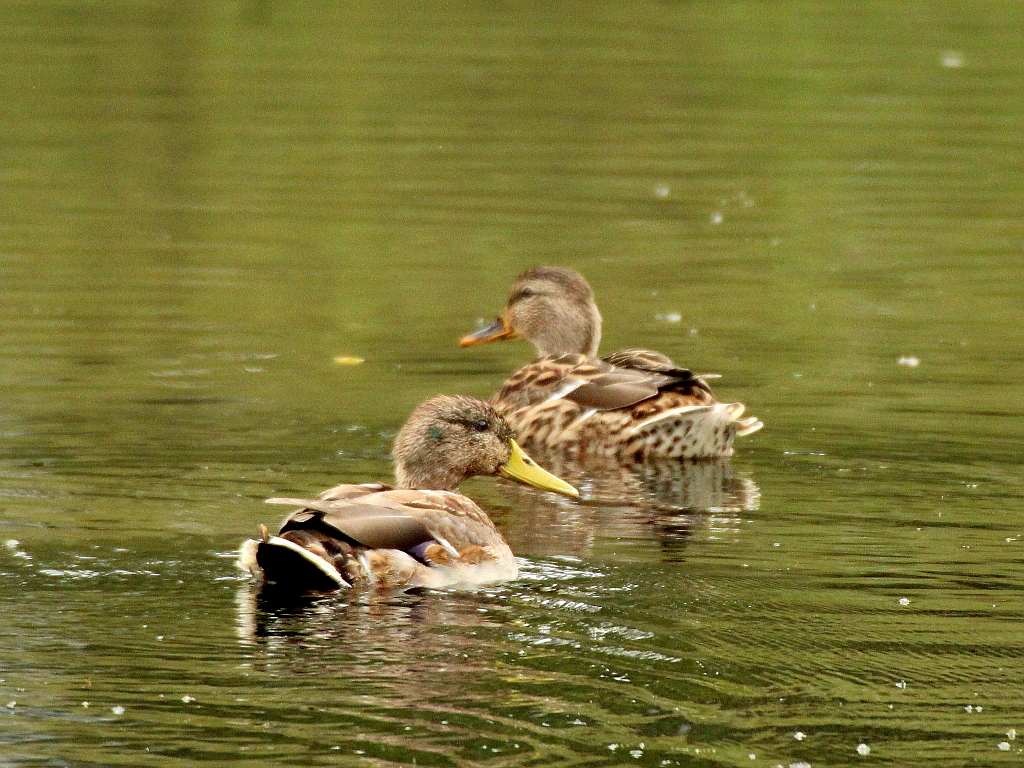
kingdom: Animalia
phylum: Chordata
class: Aves
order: Anseriformes
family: Anatidae
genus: Anas
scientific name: Anas platyrhynchos
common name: Mallard
